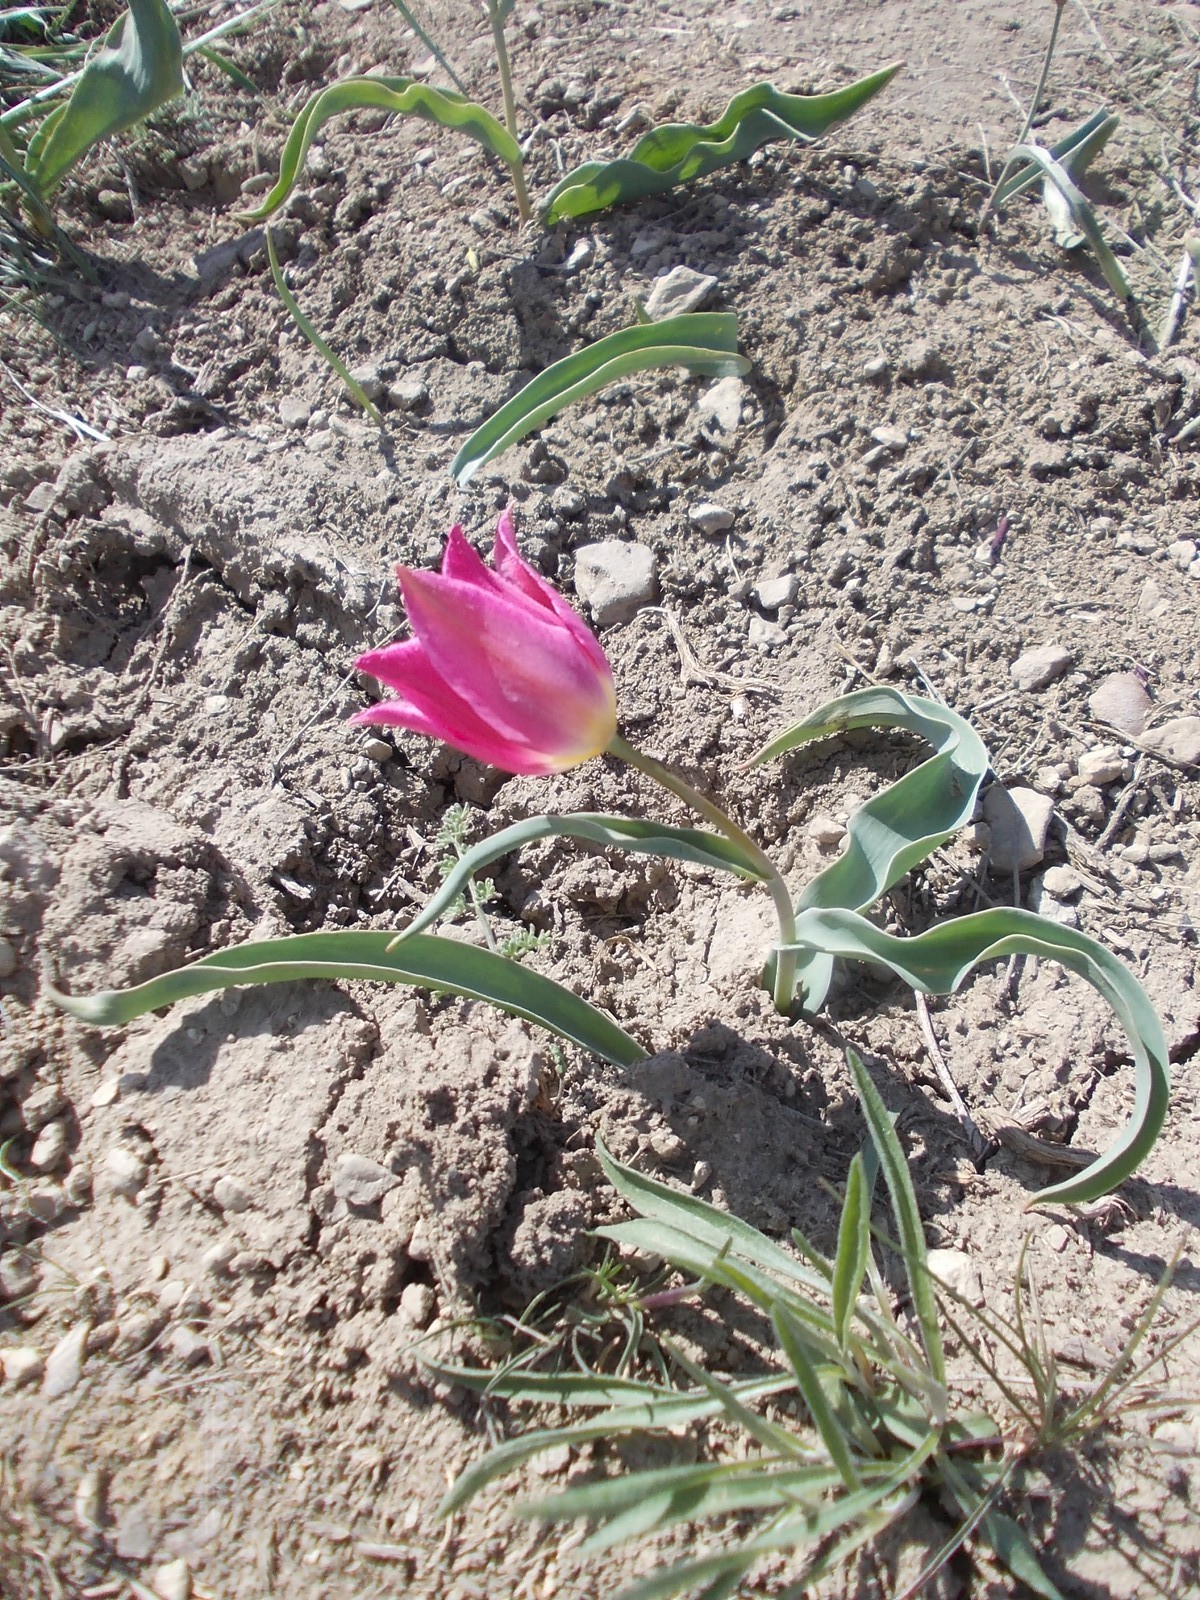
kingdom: Plantae
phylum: Tracheophyta
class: Liliopsida
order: Liliales
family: Liliaceae
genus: Tulipa
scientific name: Tulipa suaveolens
